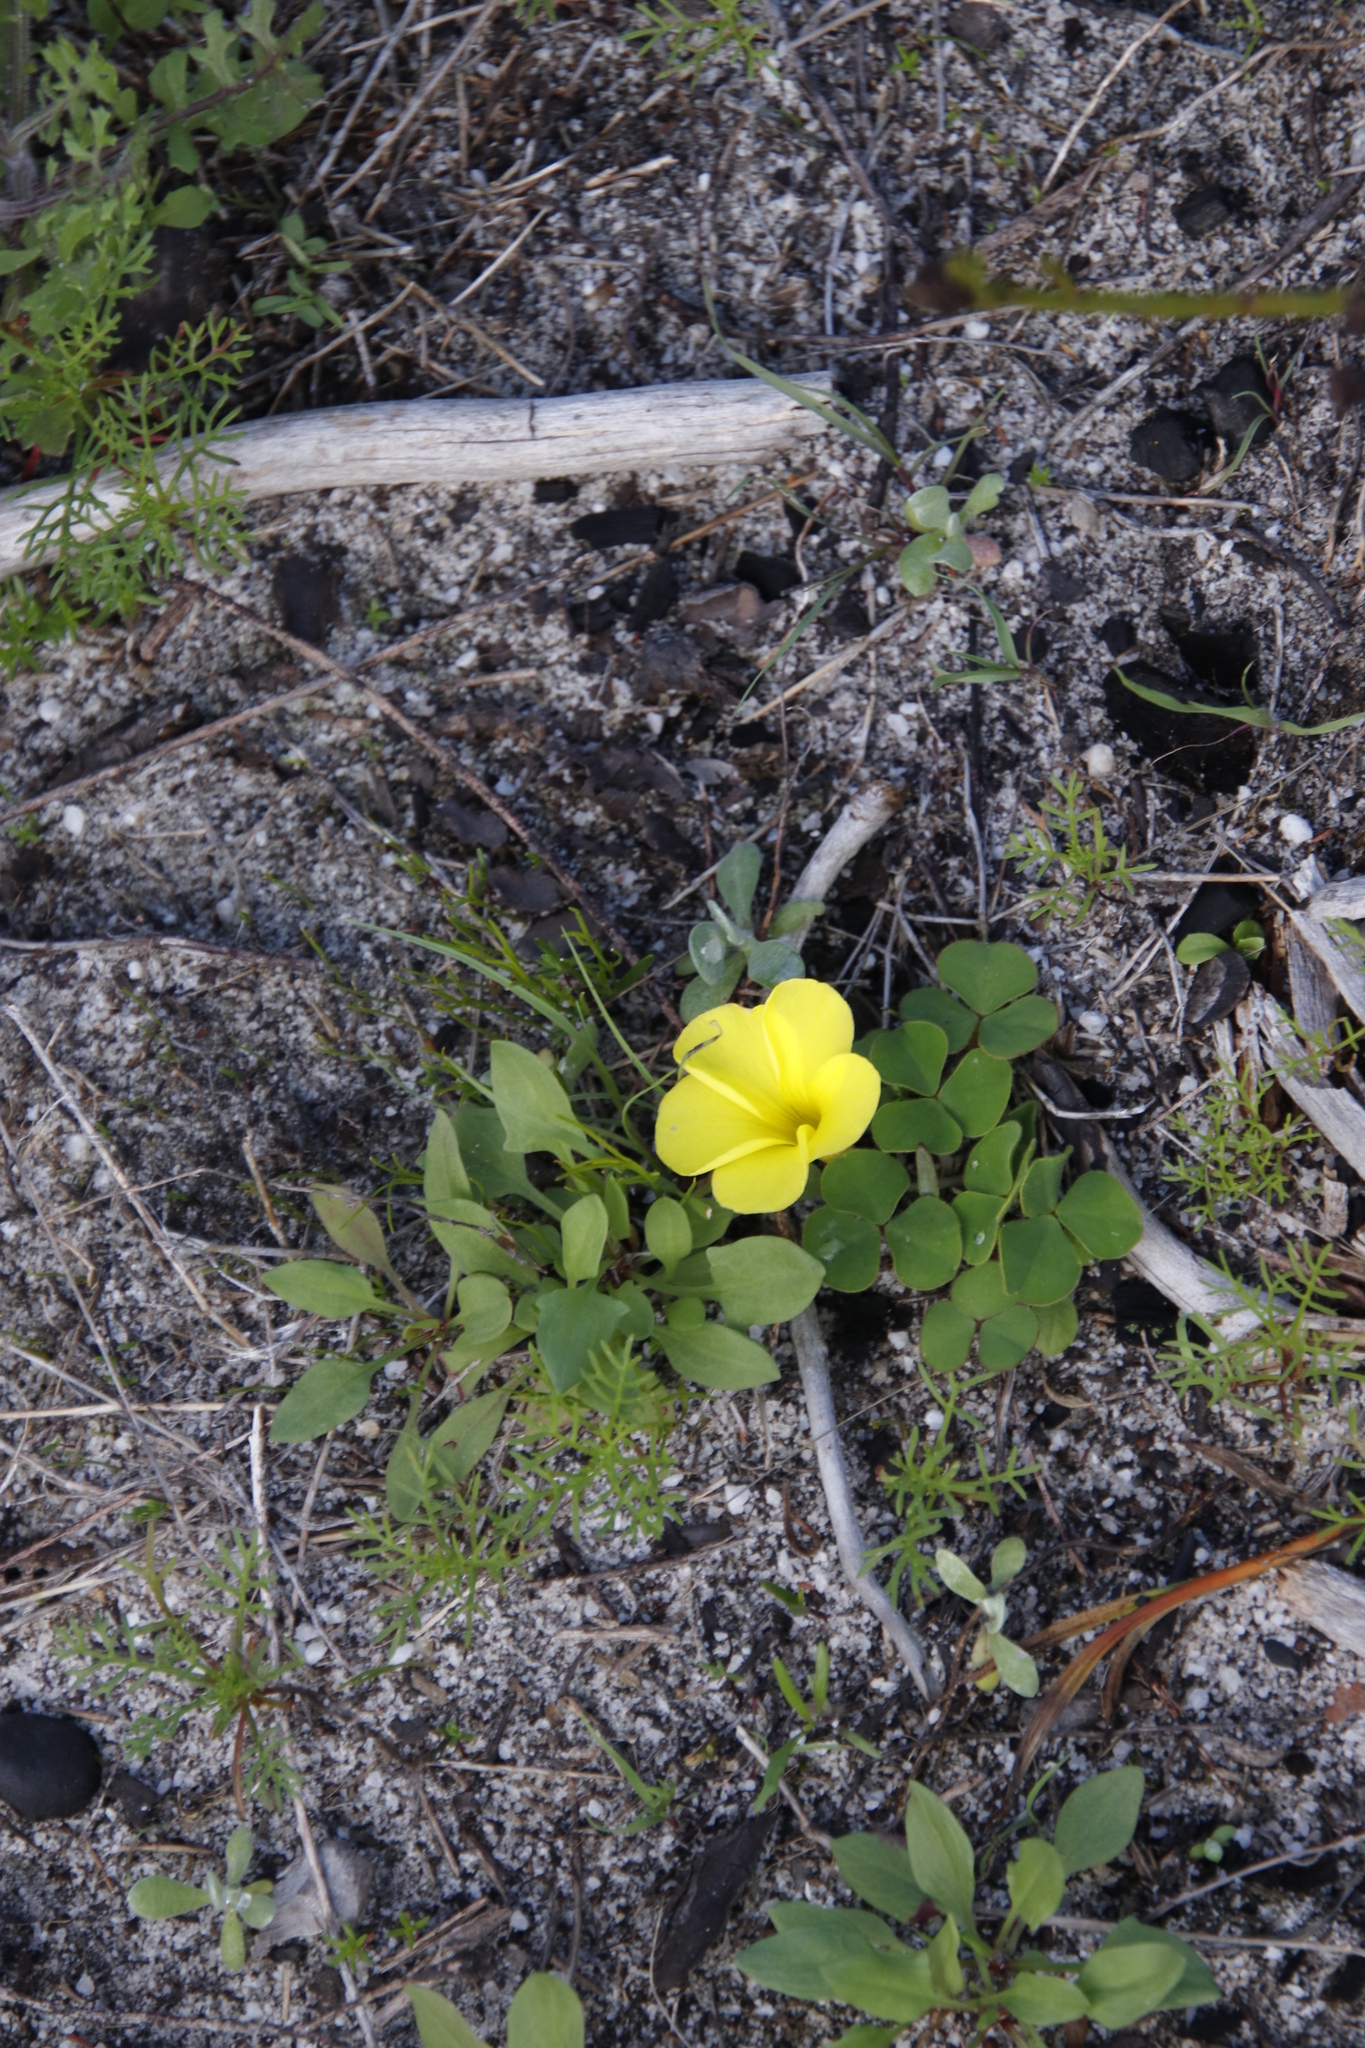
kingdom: Plantae
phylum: Tracheophyta
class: Magnoliopsida
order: Oxalidales
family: Oxalidaceae
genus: Oxalis
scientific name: Oxalis luteola
